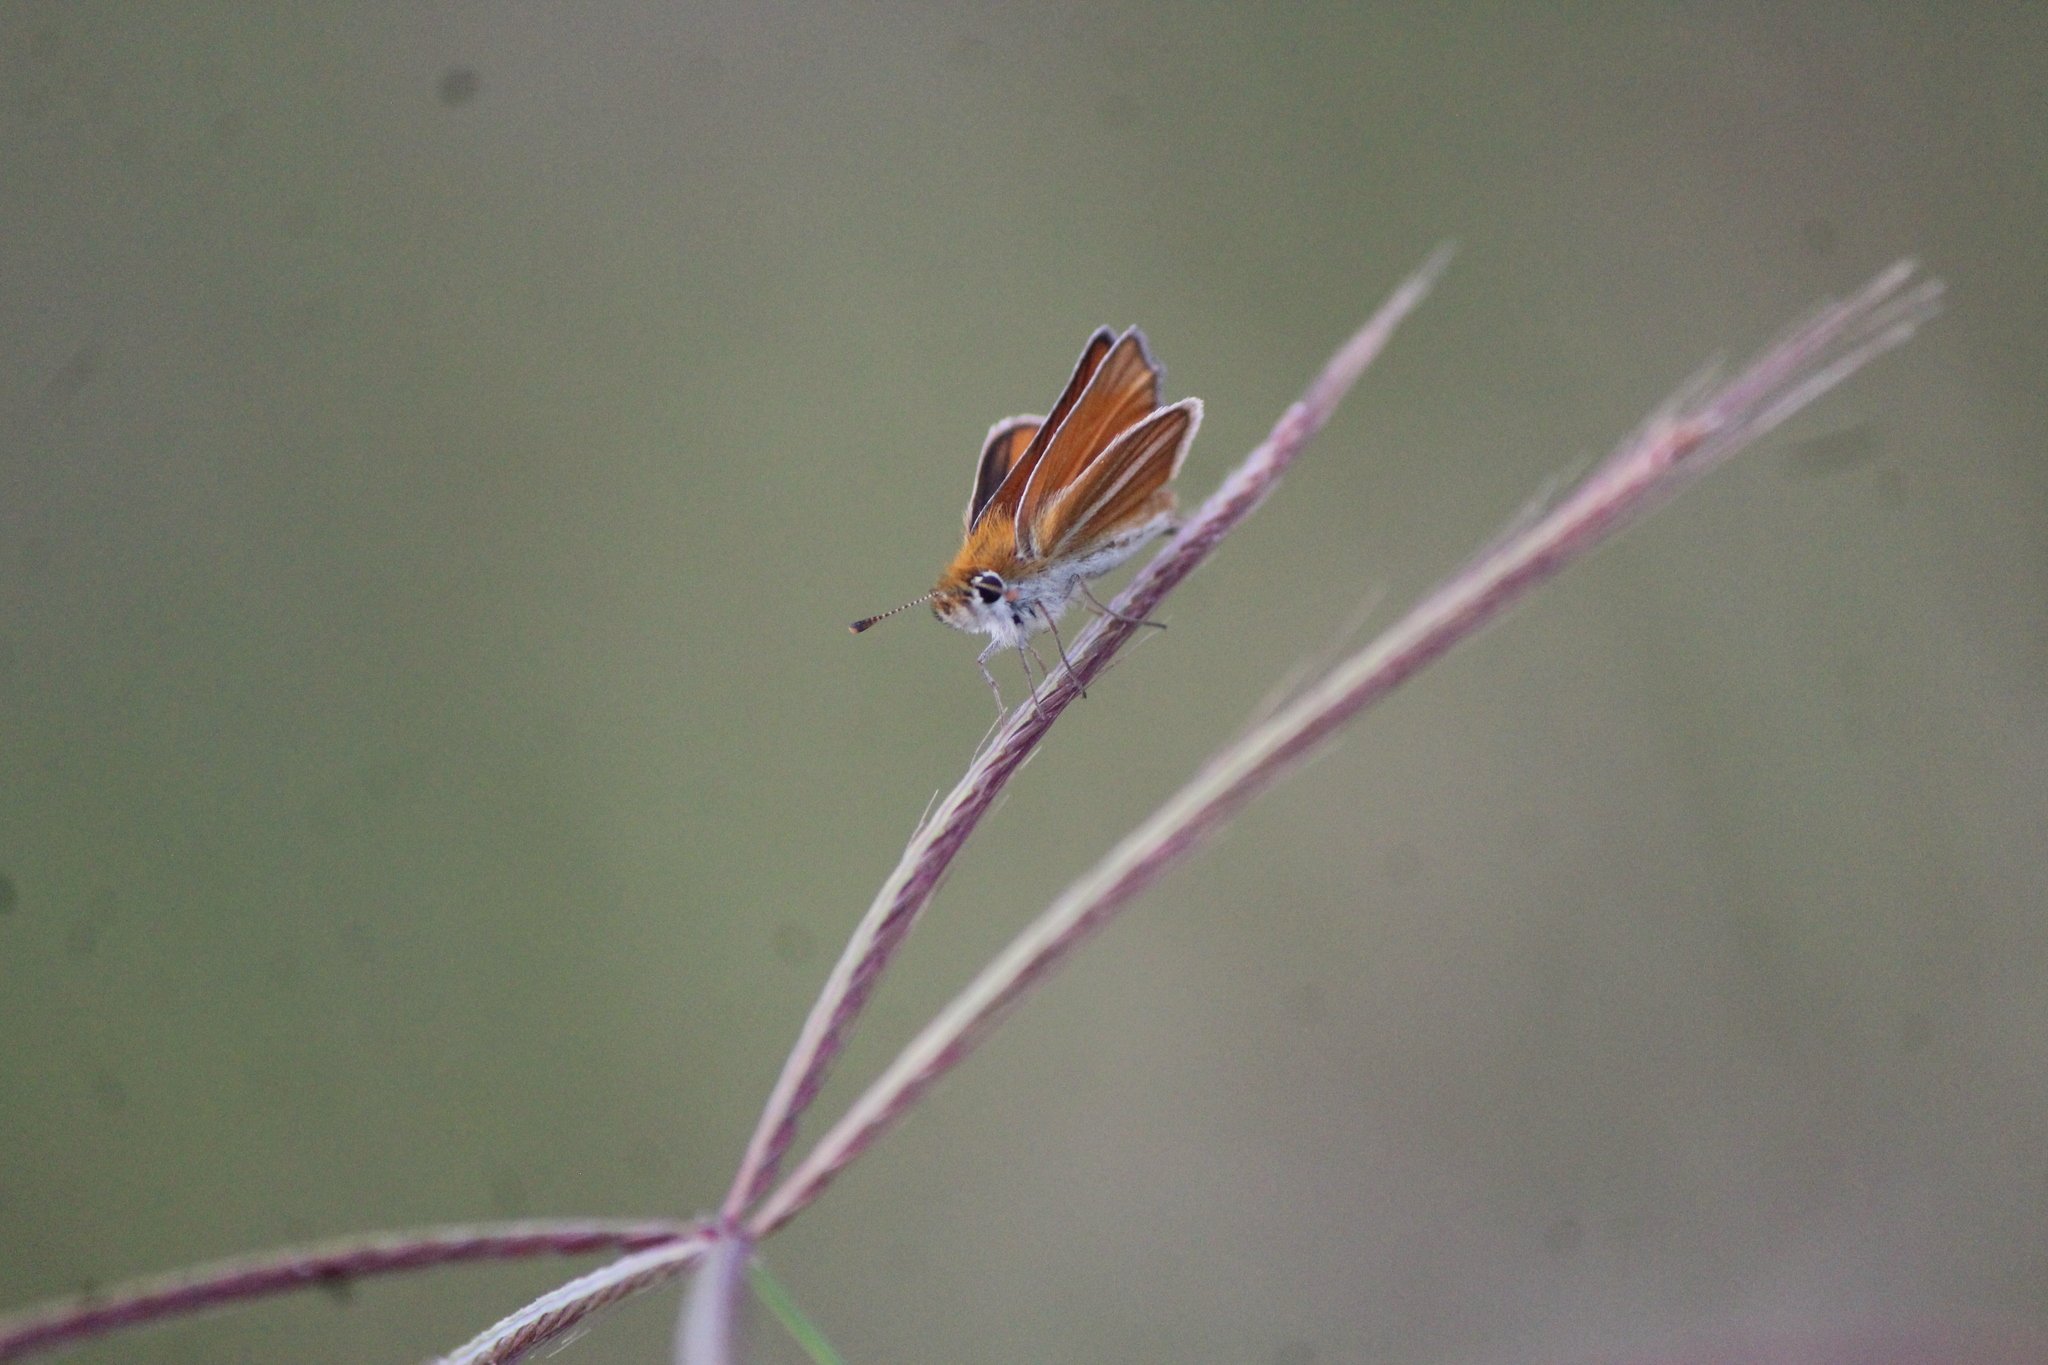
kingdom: Animalia
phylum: Arthropoda
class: Insecta
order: Lepidoptera
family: Hesperiidae
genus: Copaeodes
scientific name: Copaeodes minima
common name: Southern skipperling
